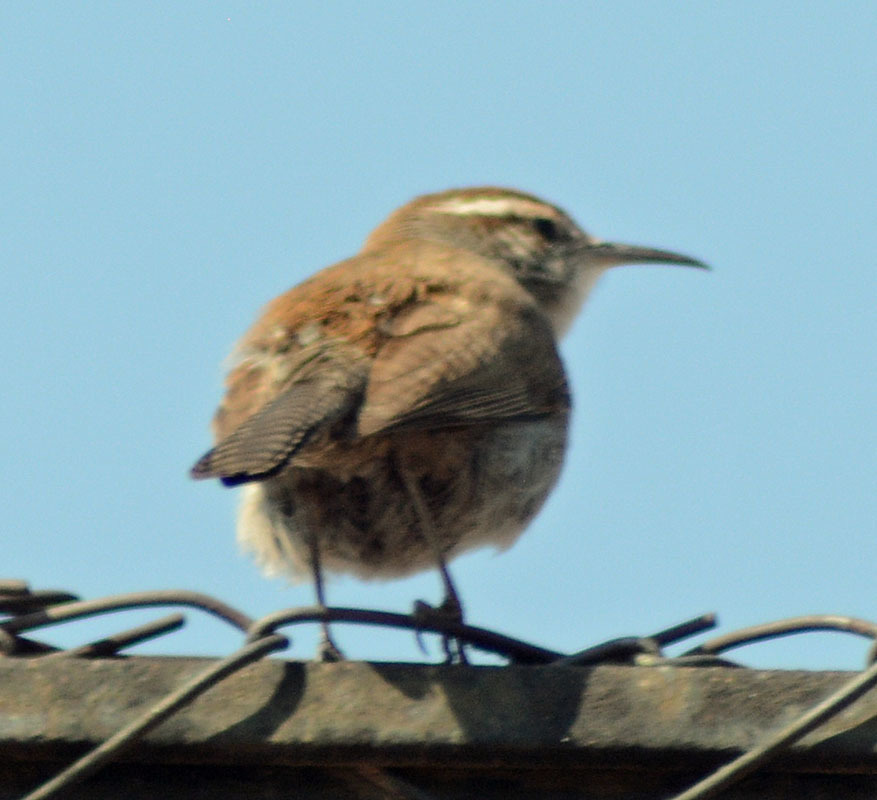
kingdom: Animalia
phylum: Chordata
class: Aves
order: Passeriformes
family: Troglodytidae
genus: Thryomanes
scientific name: Thryomanes bewickii
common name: Bewick's wren
